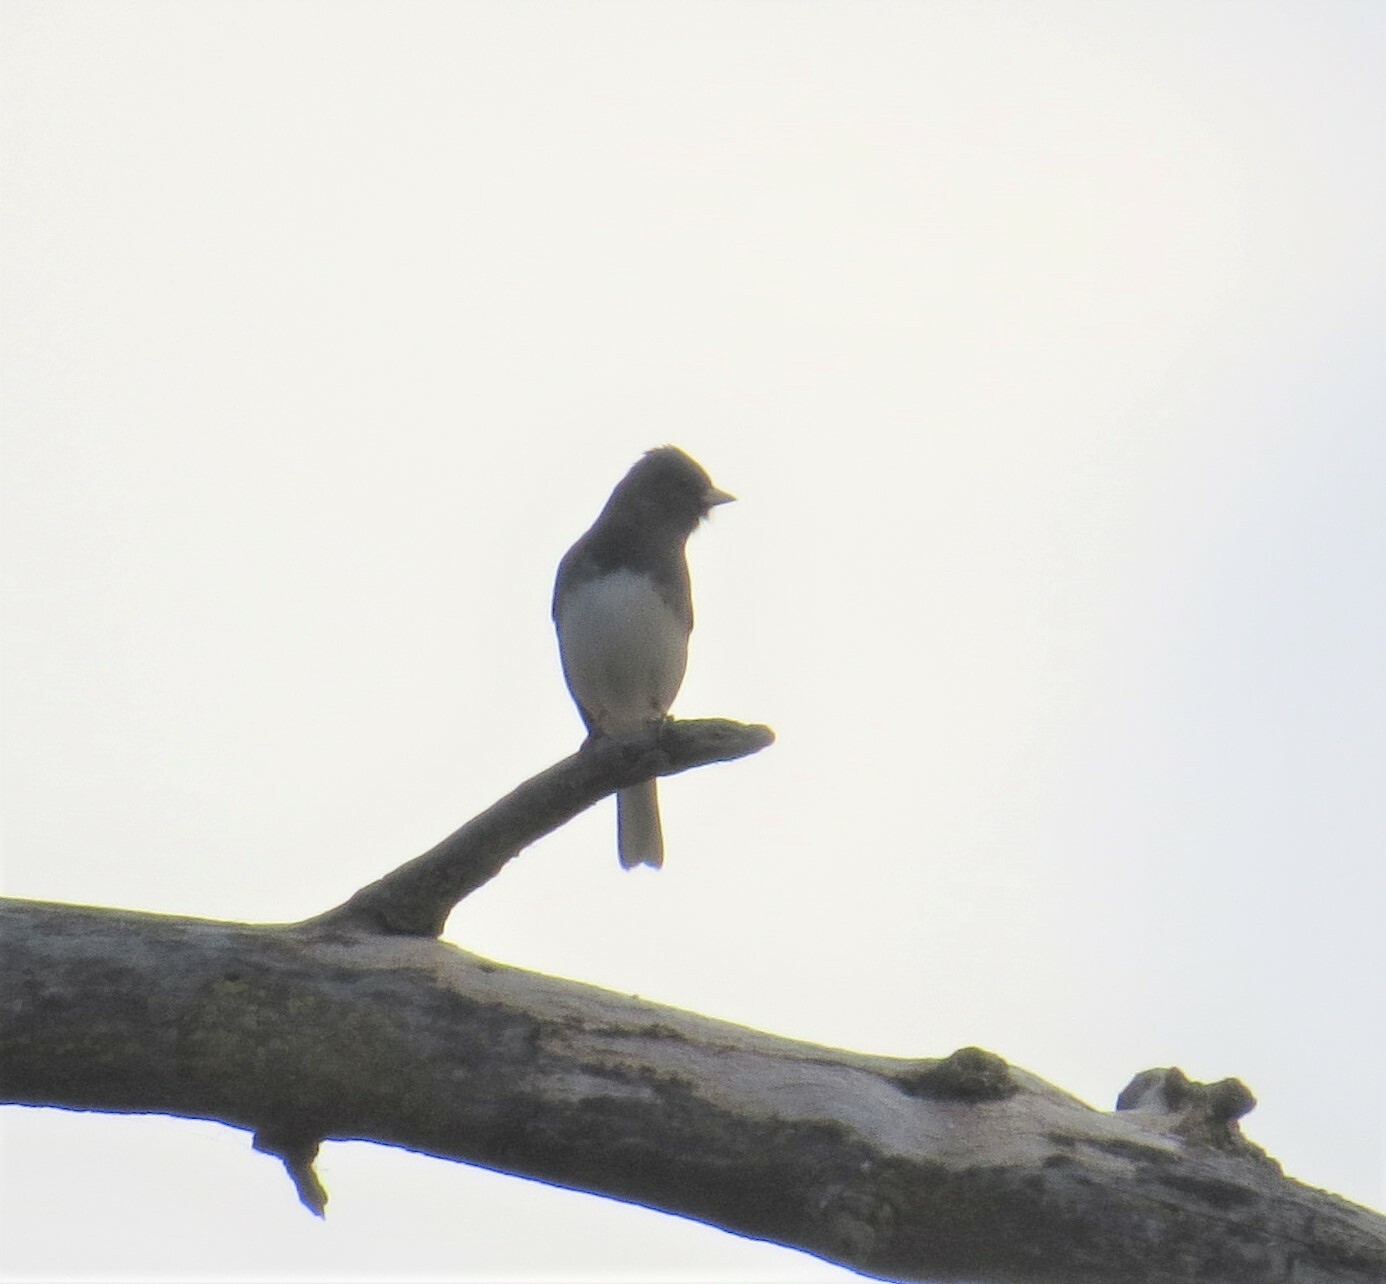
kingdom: Animalia
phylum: Chordata
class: Aves
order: Passeriformes
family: Passerellidae
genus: Junco
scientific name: Junco hyemalis
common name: Dark-eyed junco
